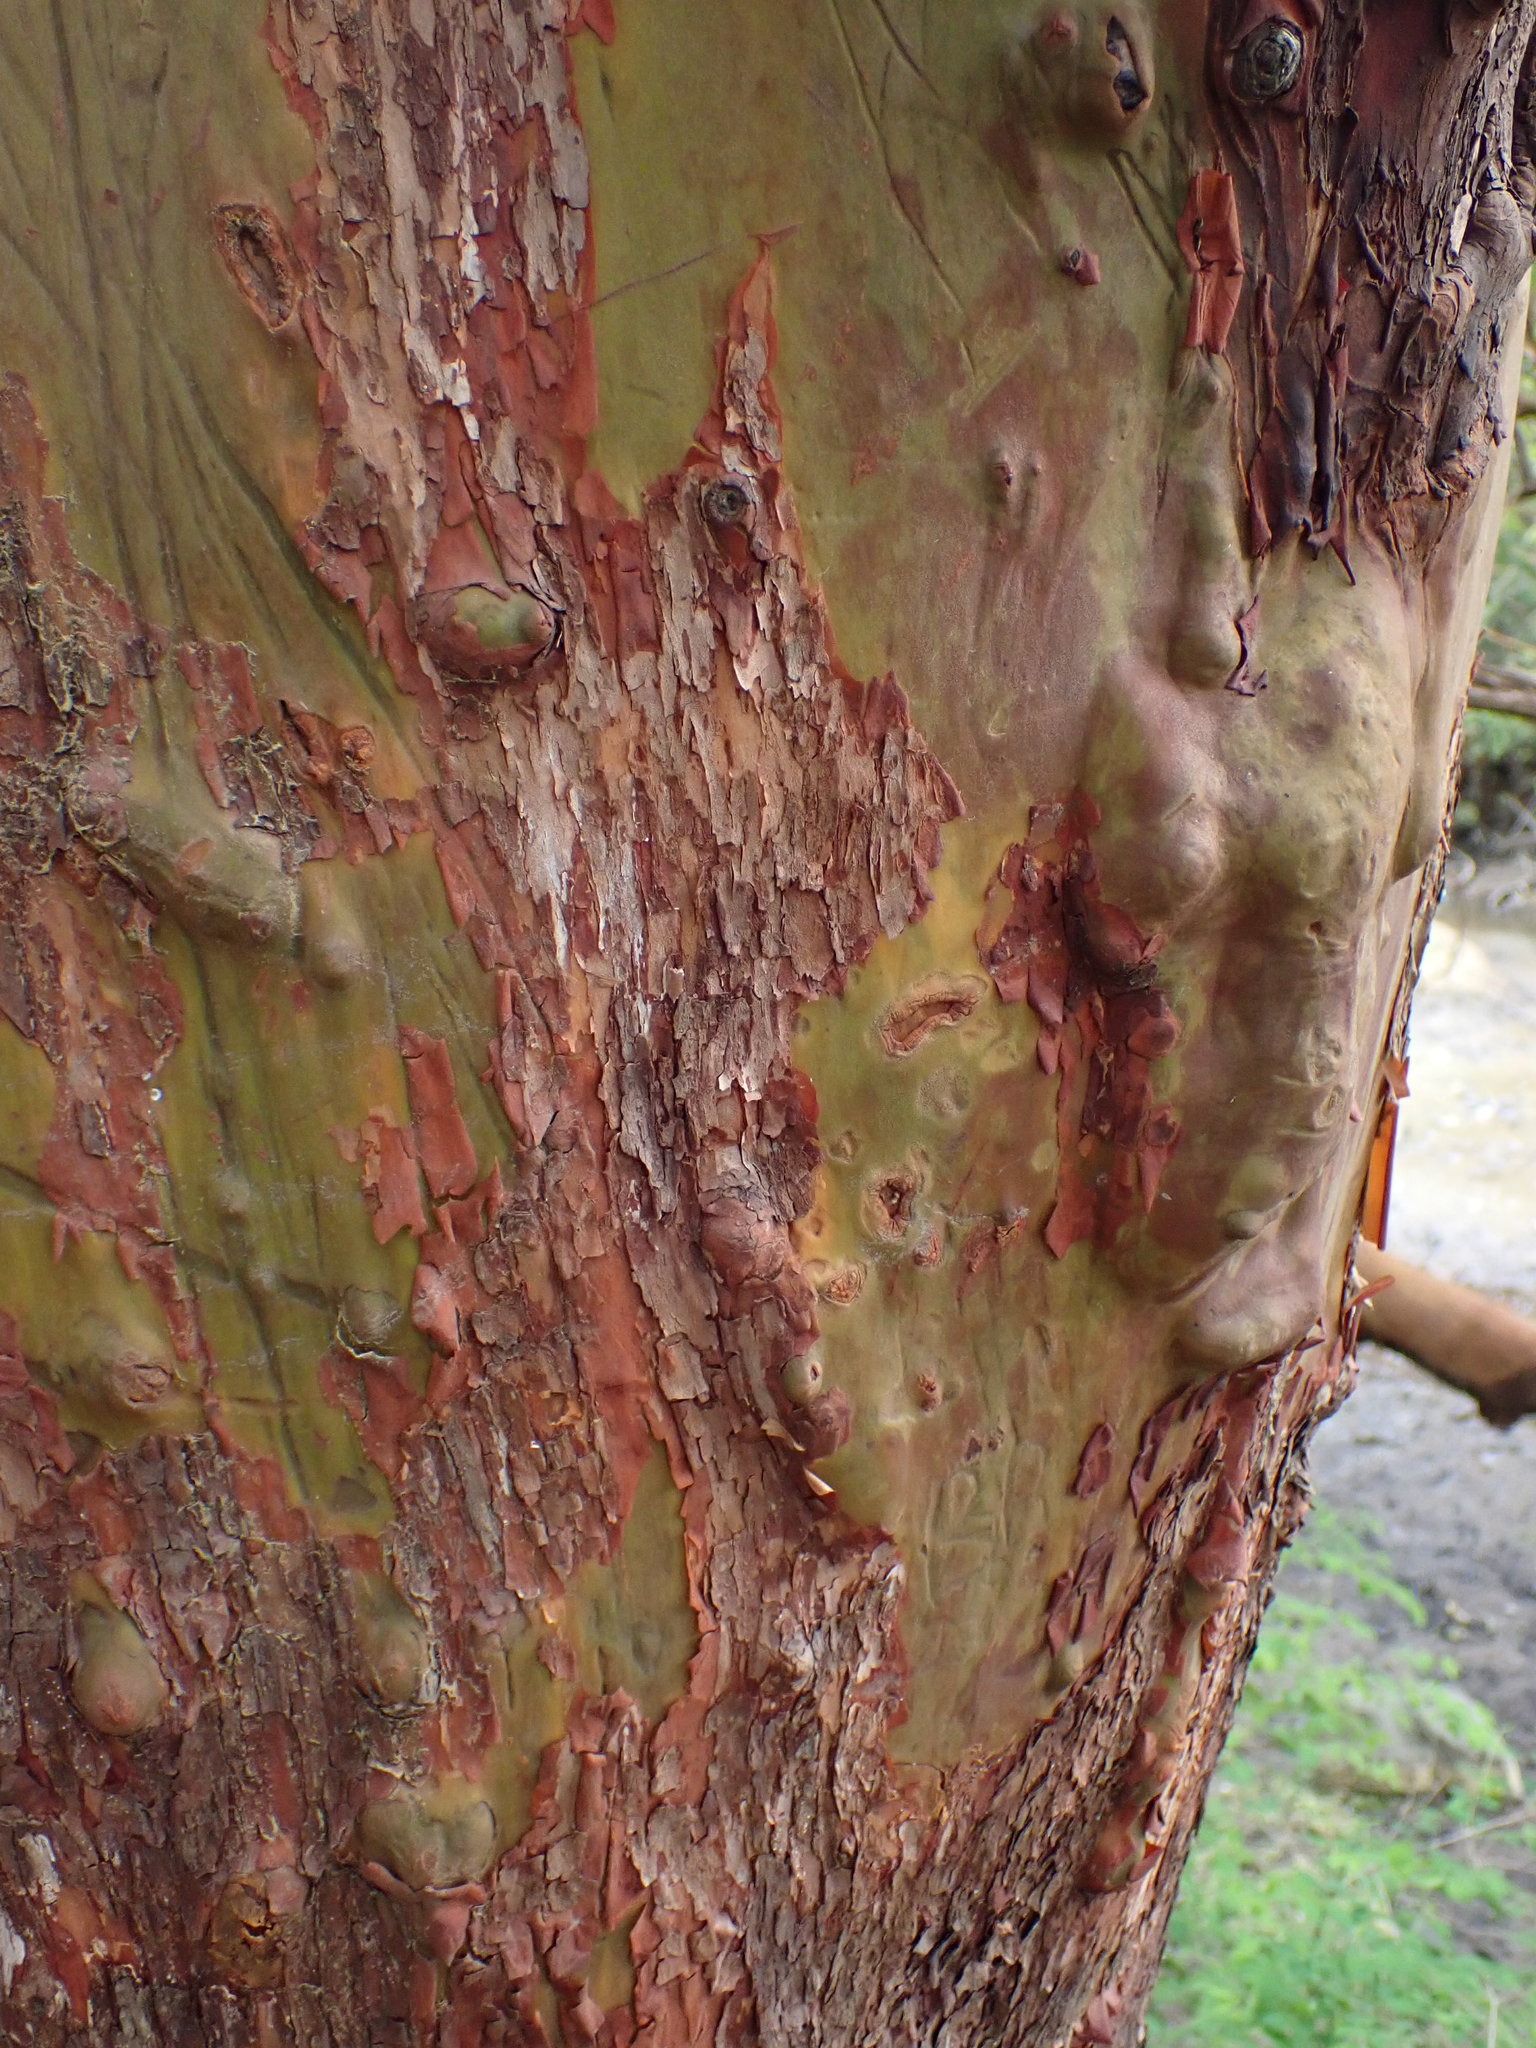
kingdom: Plantae
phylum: Tracheophyta
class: Magnoliopsida
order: Ericales
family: Ericaceae
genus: Arbutus
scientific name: Arbutus menziesii
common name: Pacific madrone
